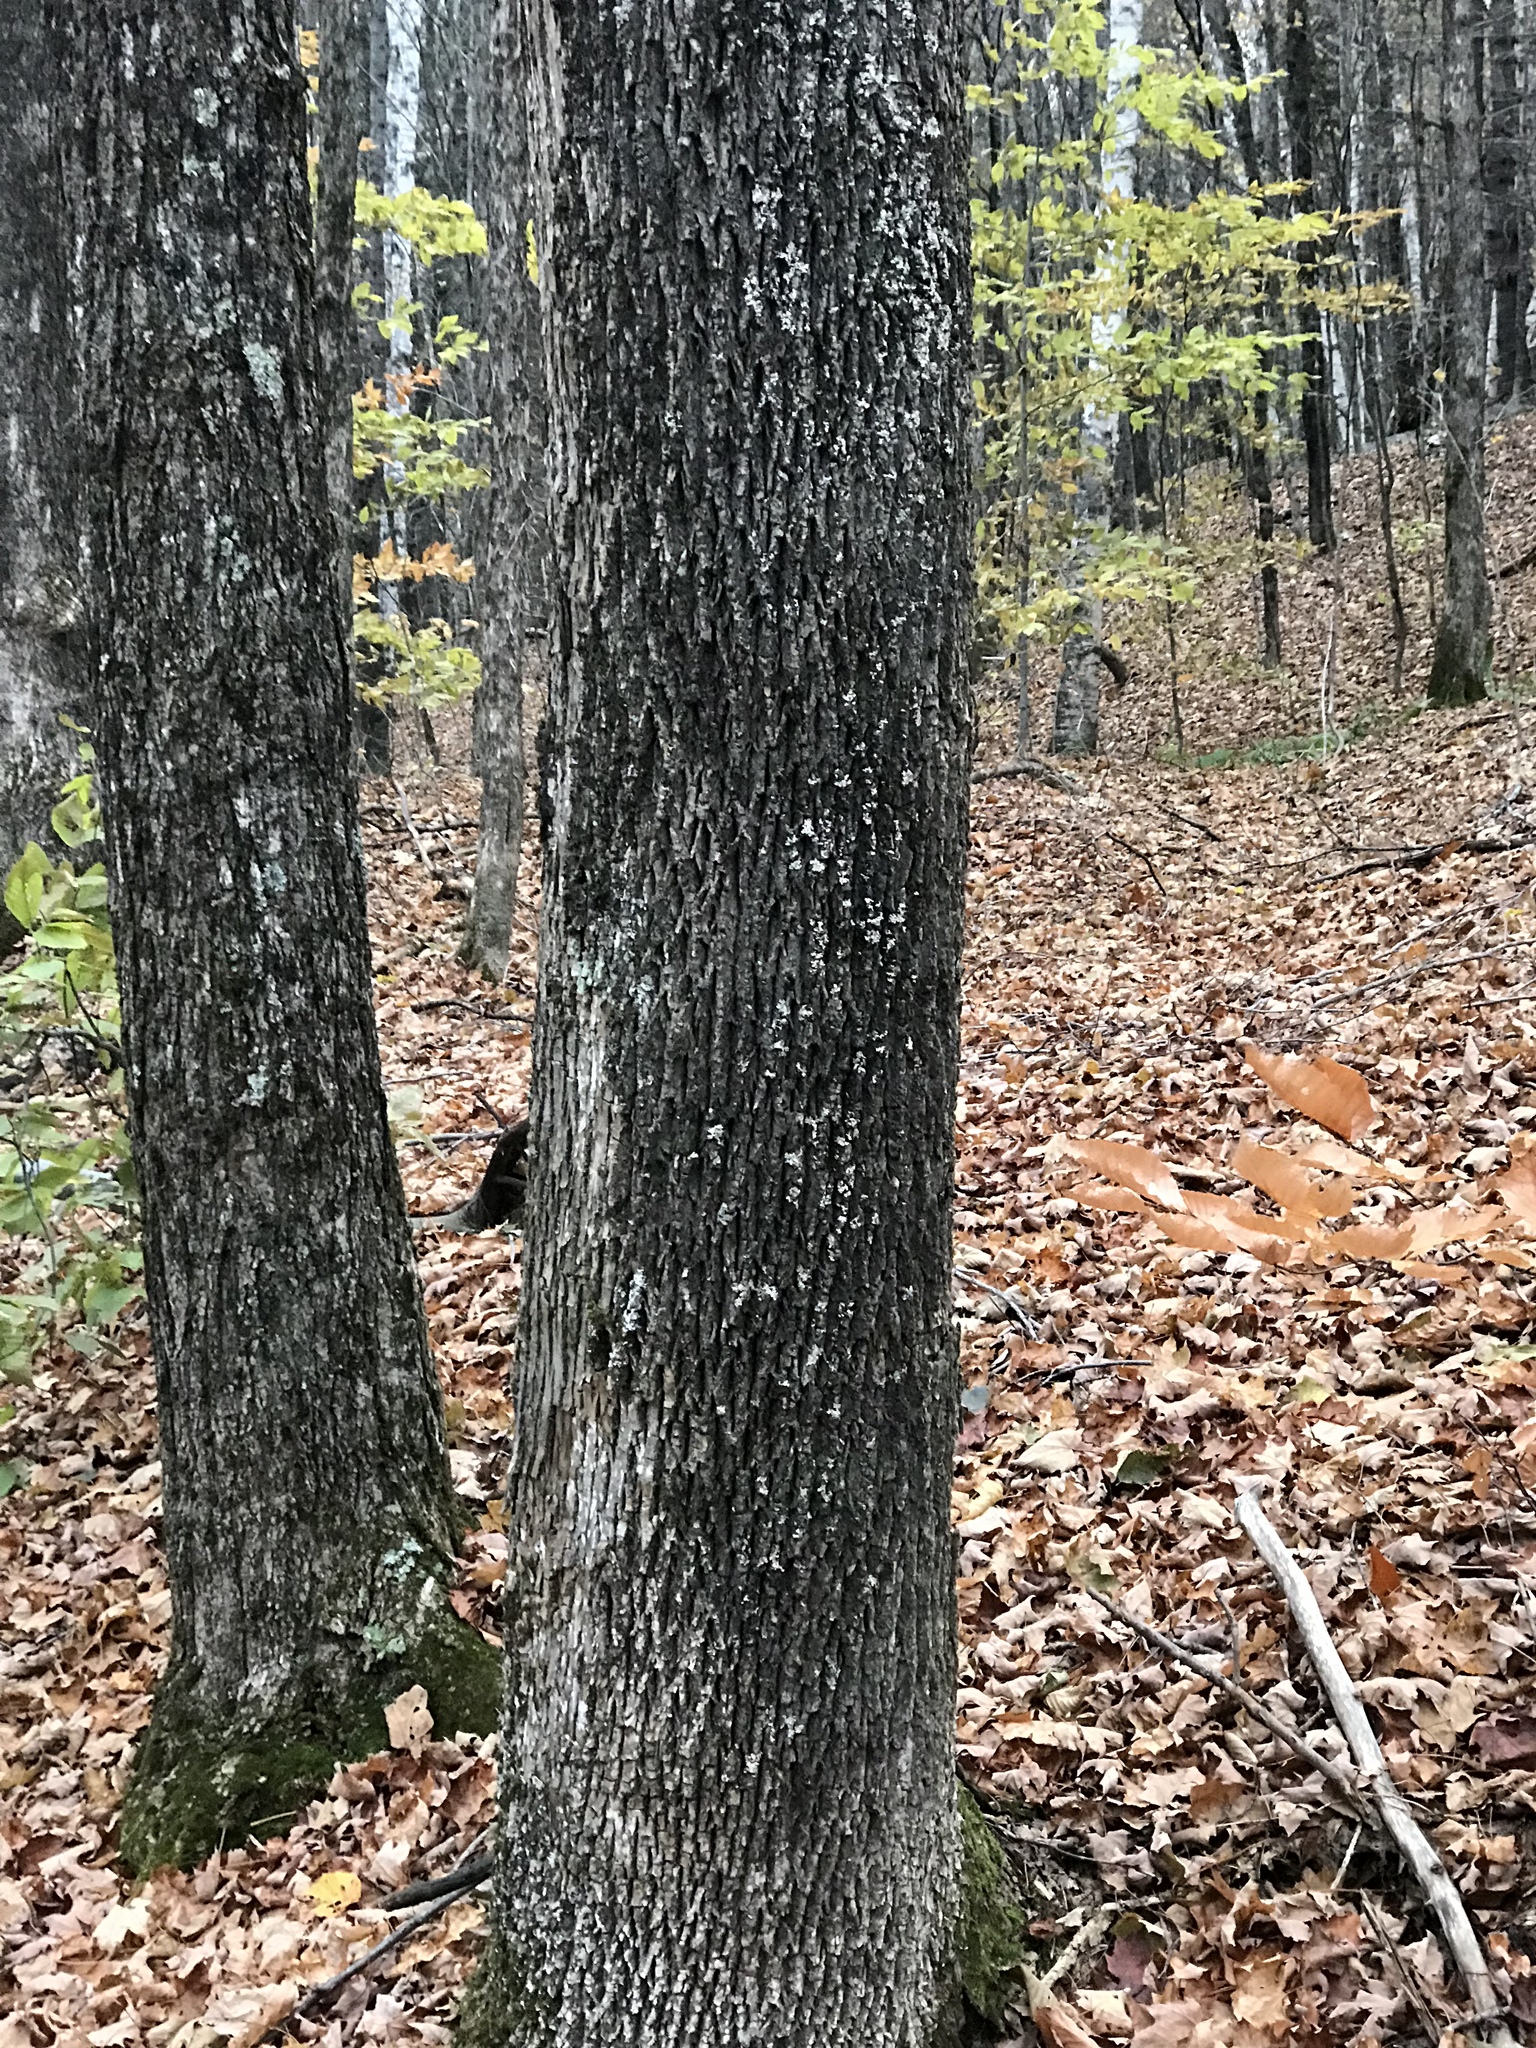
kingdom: Plantae
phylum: Tracheophyta
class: Magnoliopsida
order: Lamiales
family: Oleaceae
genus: Fraxinus
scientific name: Fraxinus americana
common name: White ash
